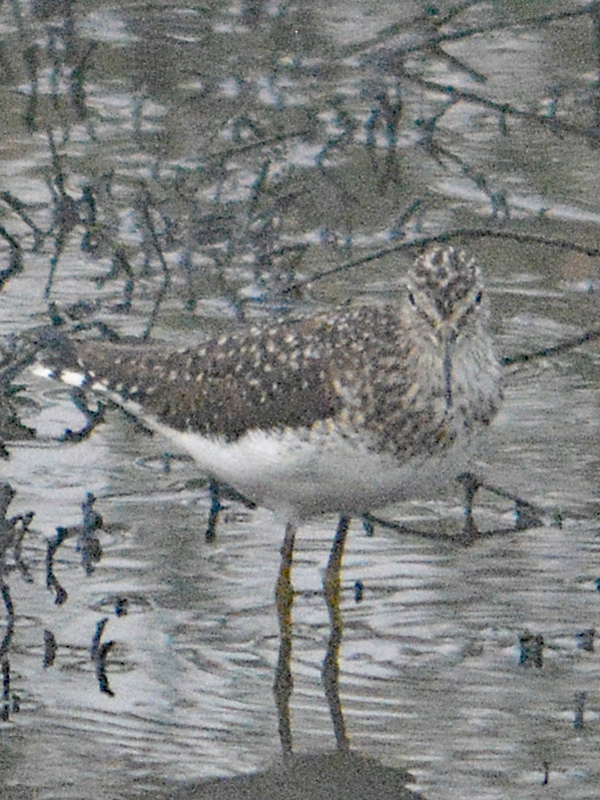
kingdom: Animalia
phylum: Chordata
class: Aves
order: Charadriiformes
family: Scolopacidae
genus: Tringa
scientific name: Tringa solitaria
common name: Solitary sandpiper
